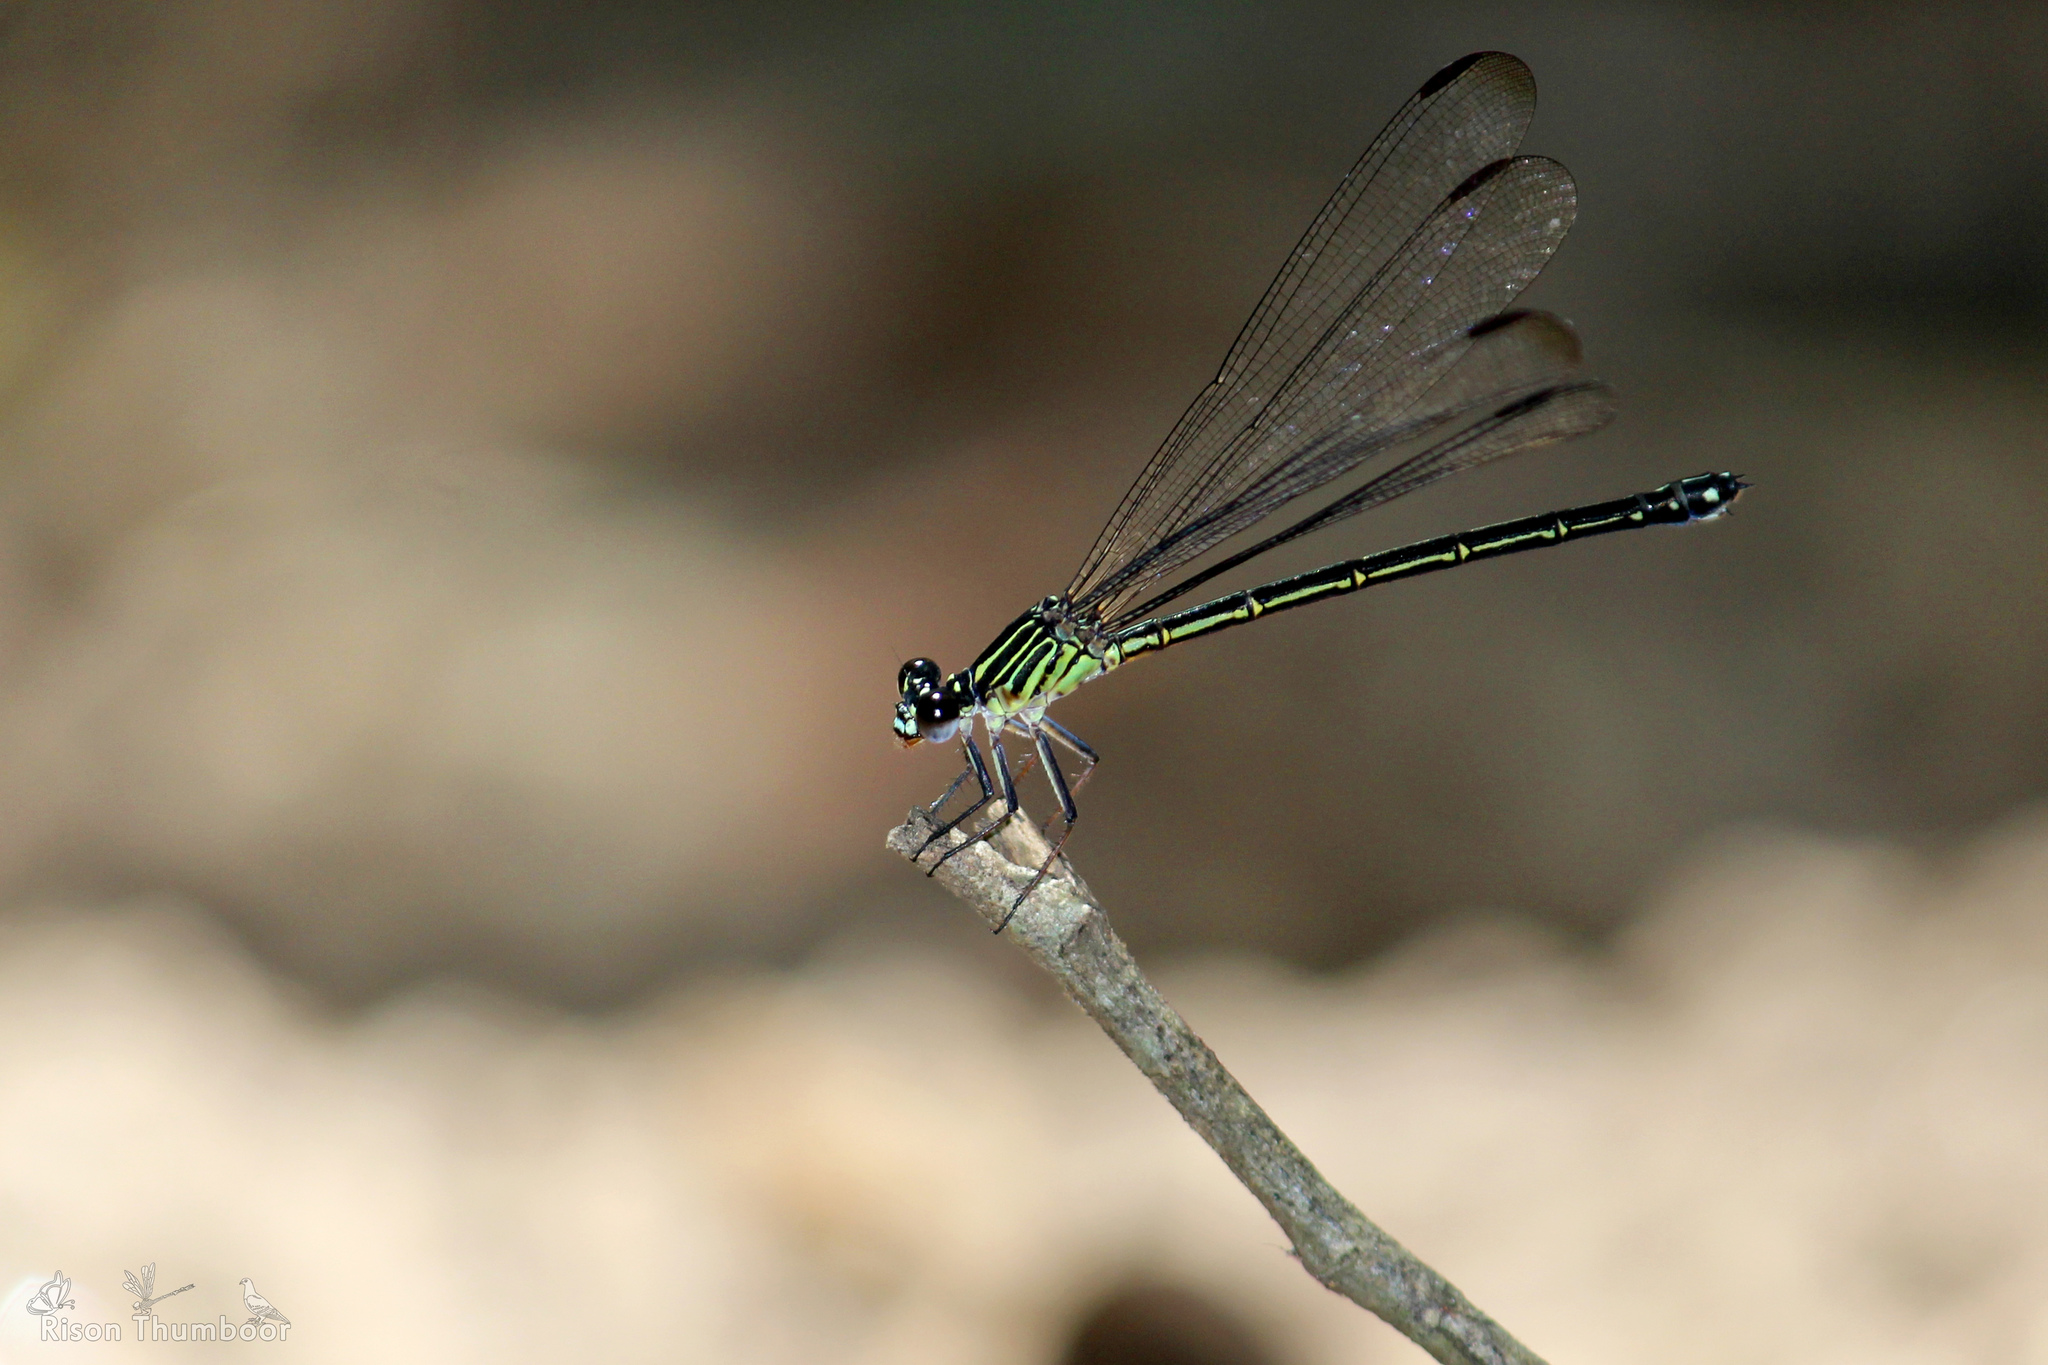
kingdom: Animalia
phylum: Arthropoda
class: Insecta
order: Odonata
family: Euphaeidae
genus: Euphaea
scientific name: Euphaea fraseri
